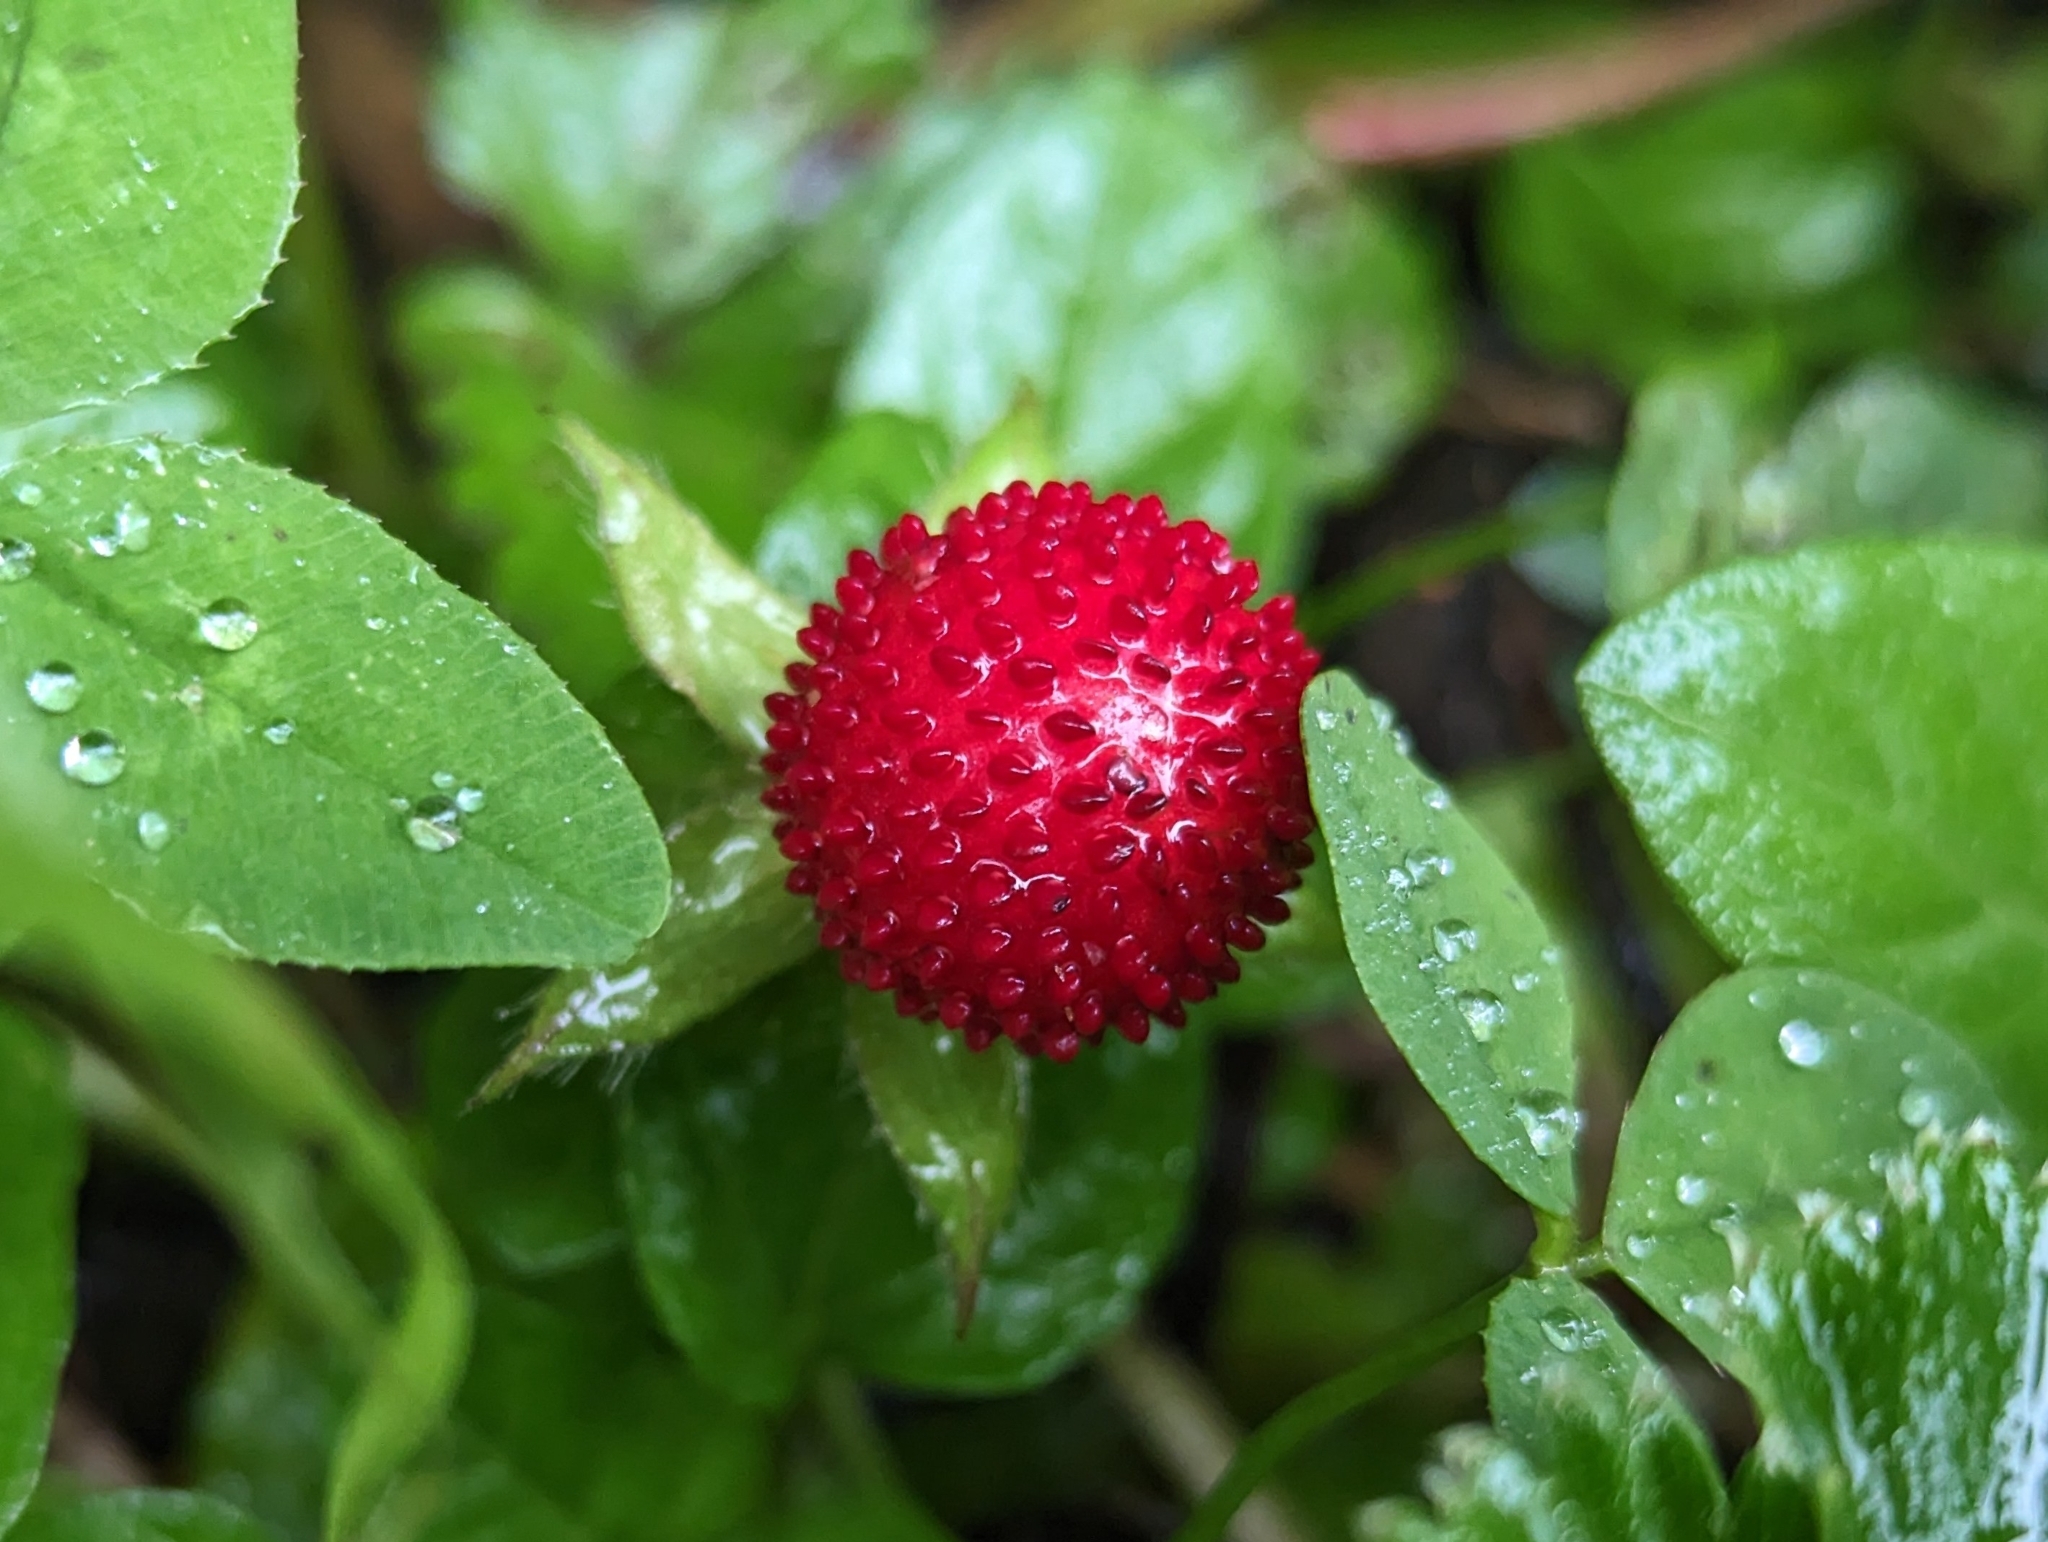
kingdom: Plantae
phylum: Tracheophyta
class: Magnoliopsida
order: Rosales
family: Rosaceae
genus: Potentilla
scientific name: Potentilla indica
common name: Yellow-flowered strawberry
